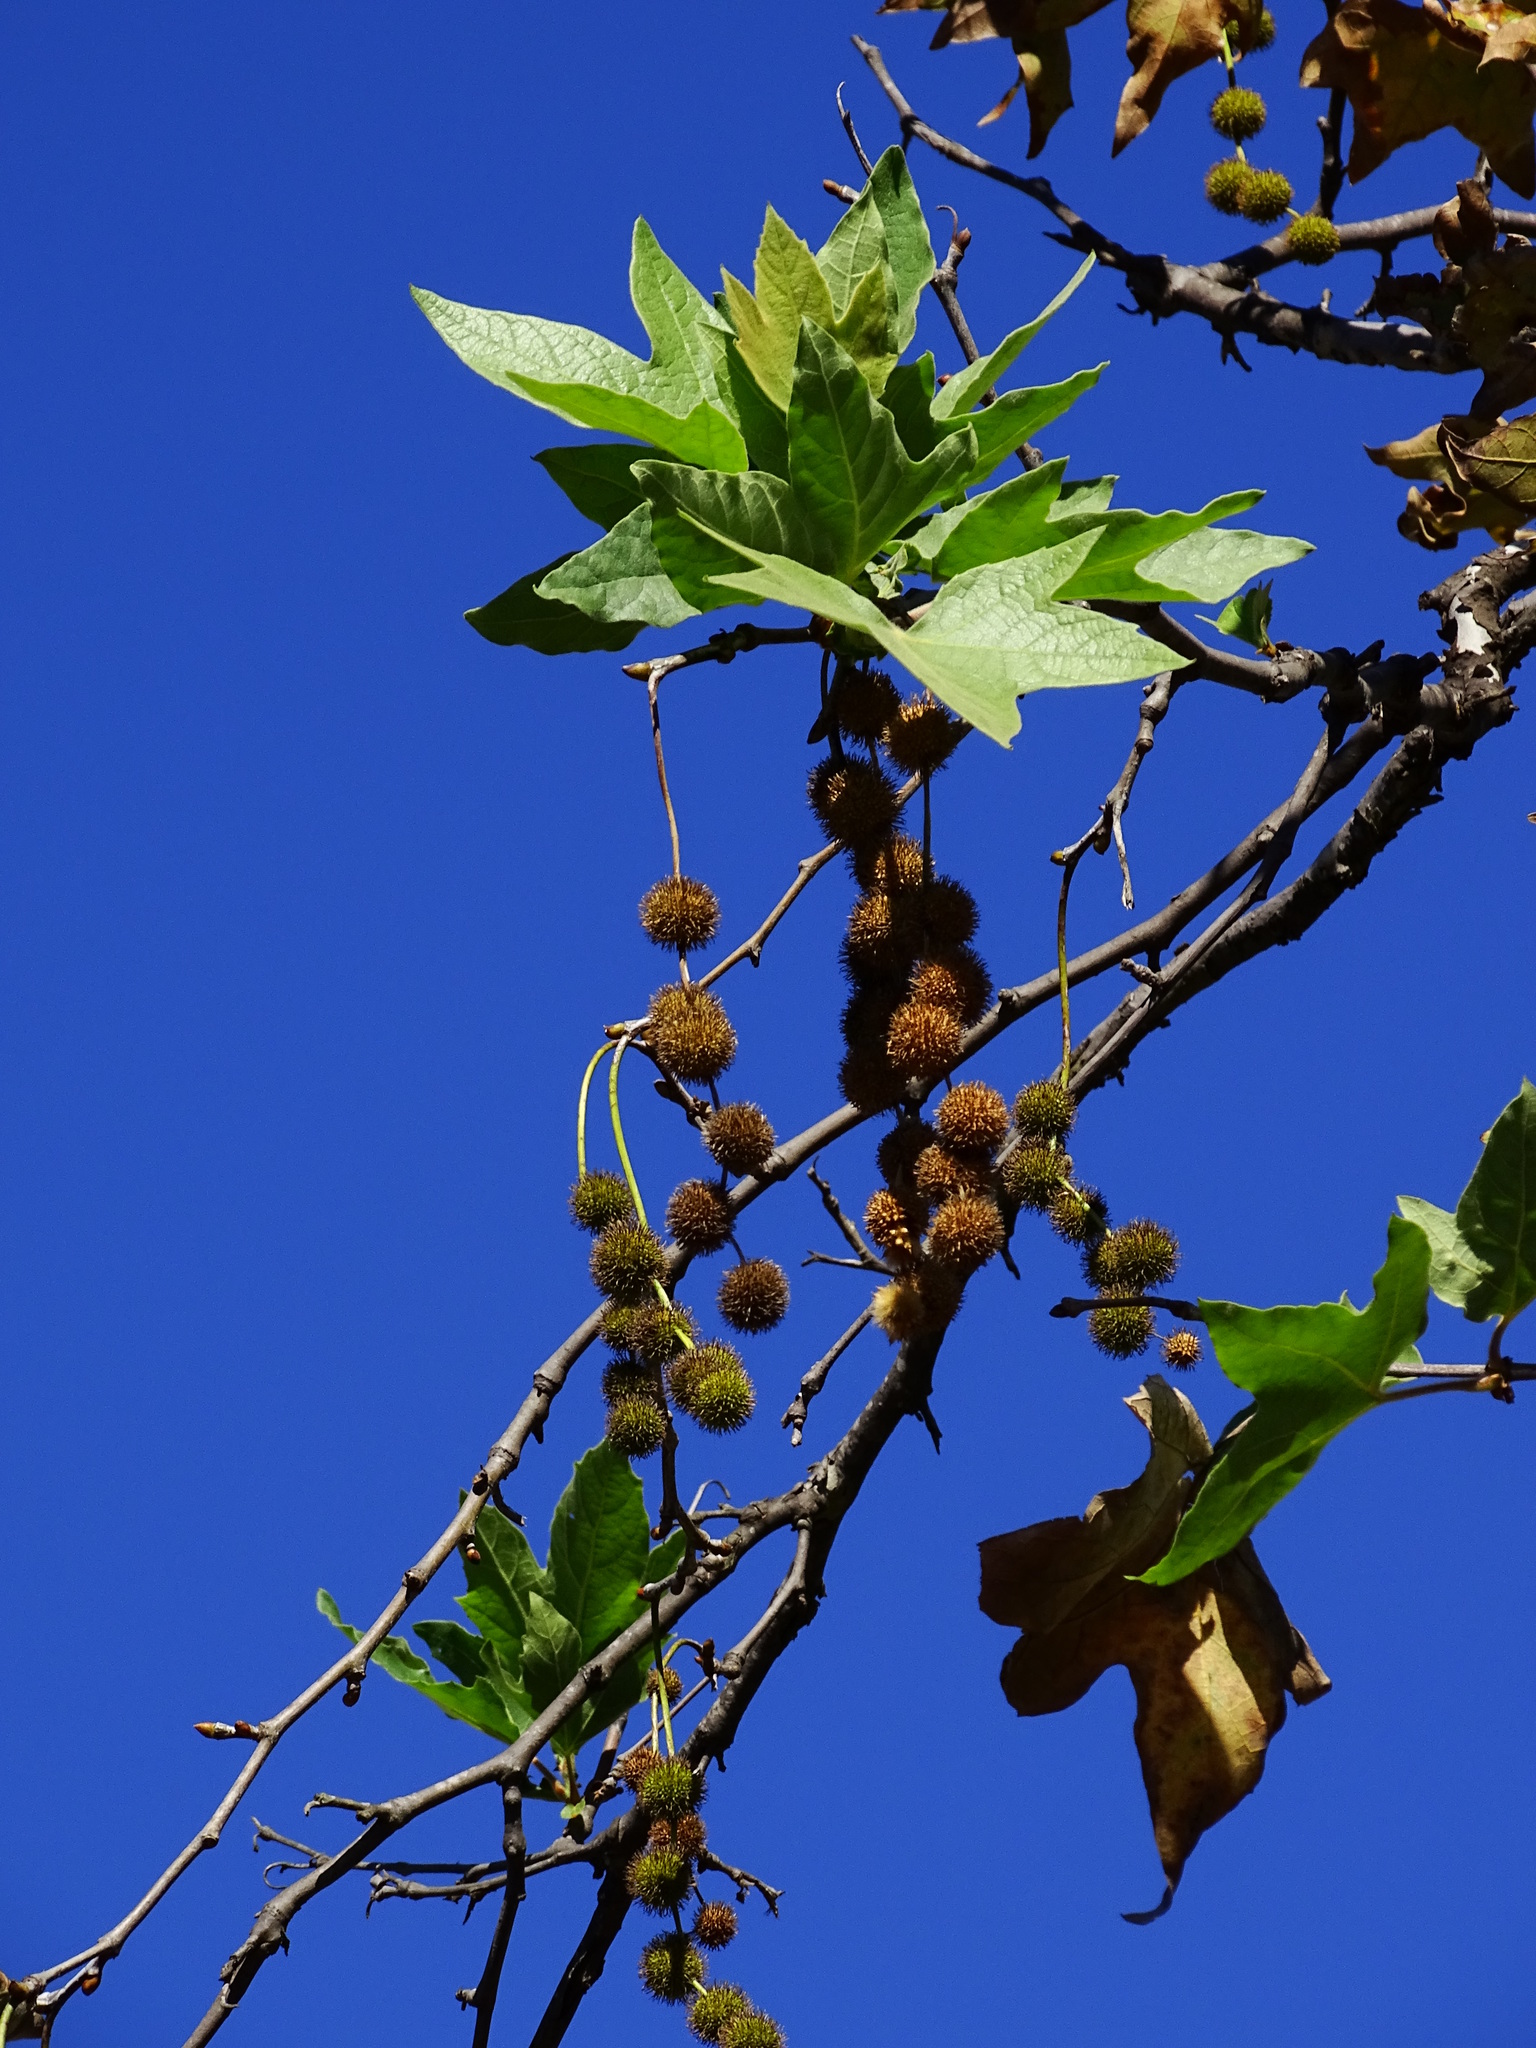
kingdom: Plantae
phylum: Tracheophyta
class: Magnoliopsida
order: Proteales
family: Platanaceae
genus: Platanus
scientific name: Platanus racemosa
